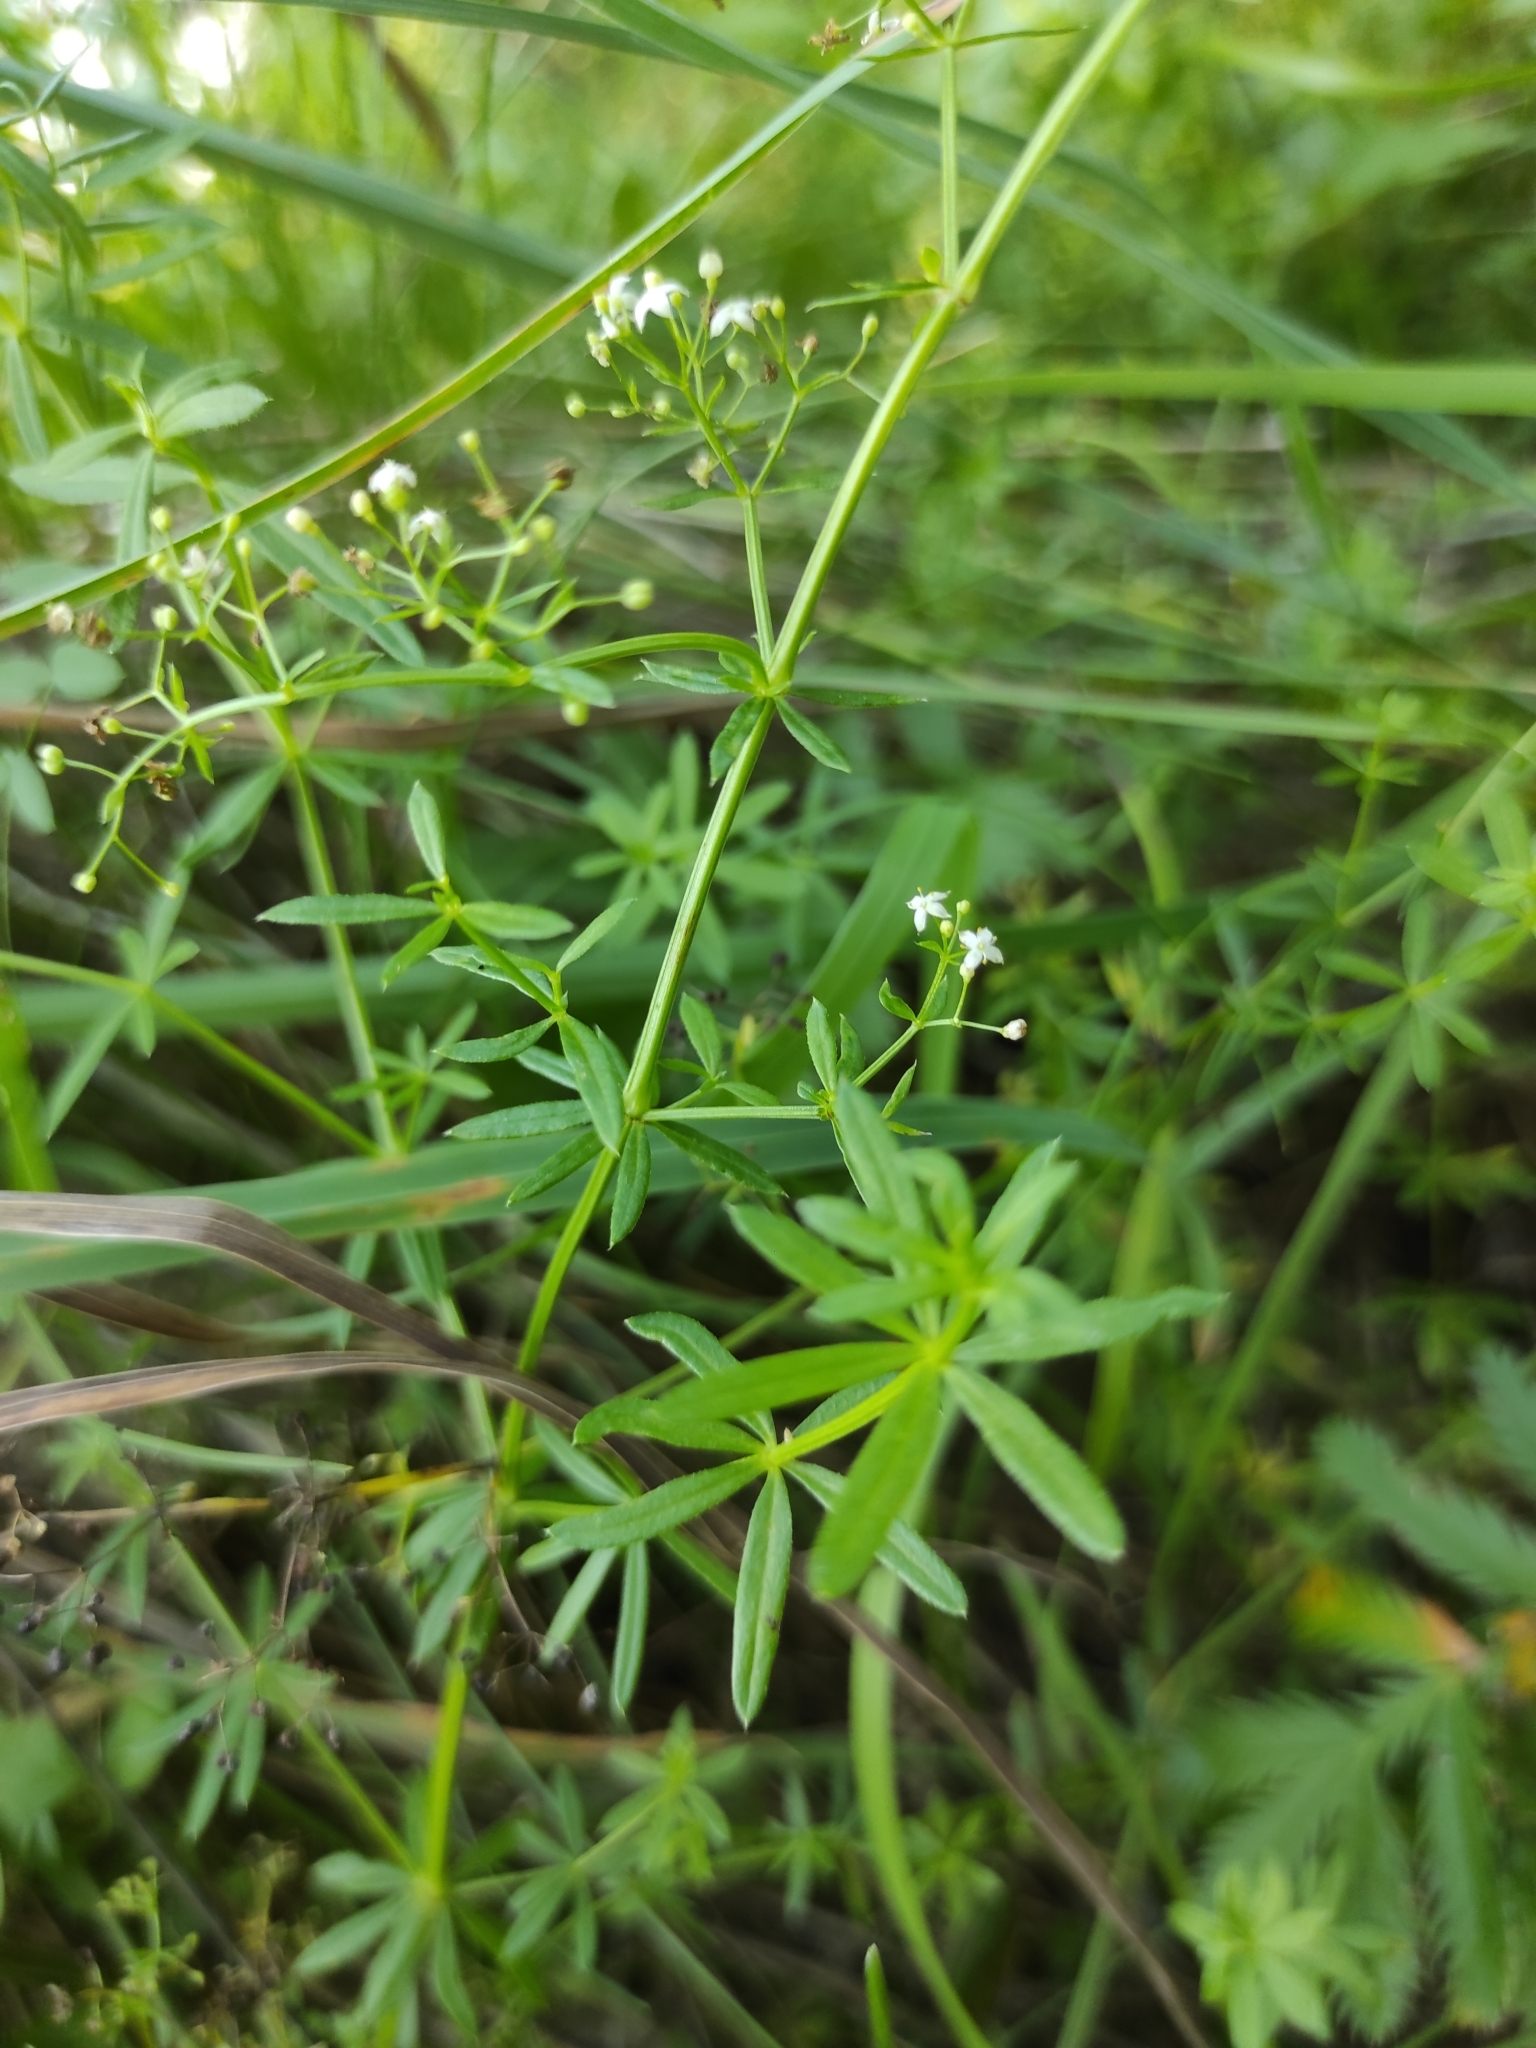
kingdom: Plantae
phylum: Tracheophyta
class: Magnoliopsida
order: Gentianales
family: Rubiaceae
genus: Galium
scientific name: Galium mollugo
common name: Hedge bedstraw
